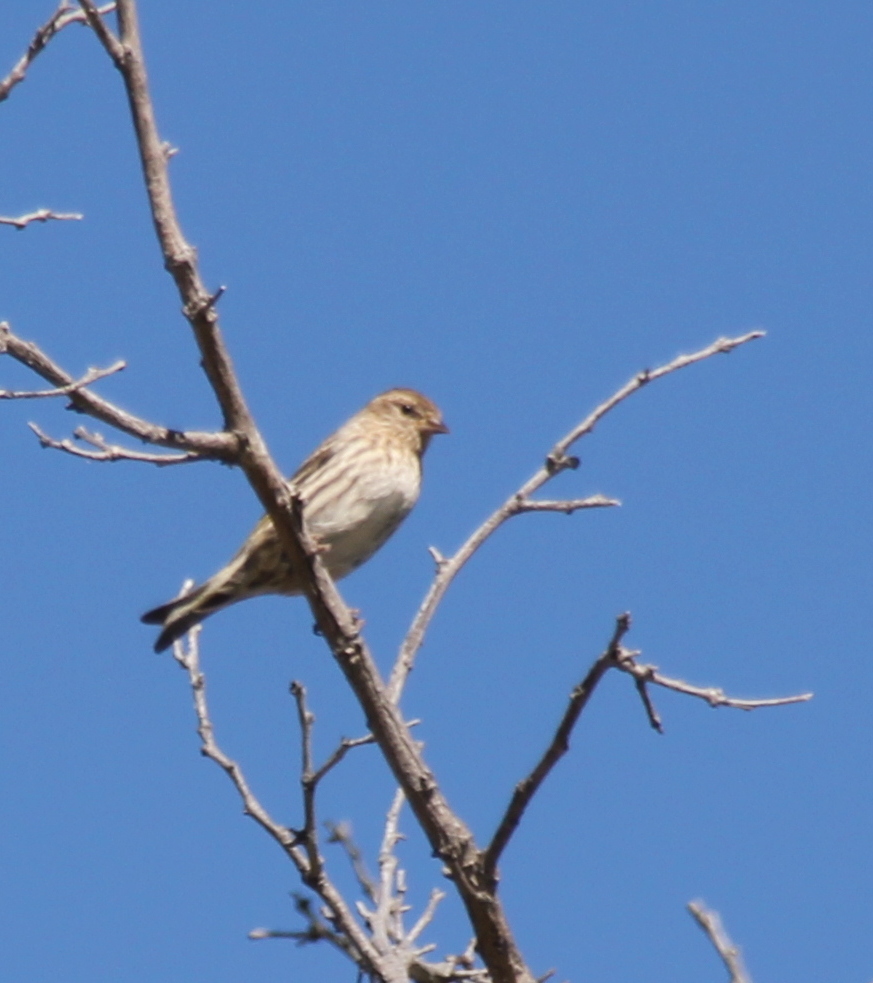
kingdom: Animalia
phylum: Chordata
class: Aves
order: Passeriformes
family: Fringillidae
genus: Spinus
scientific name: Spinus pinus
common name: Pine siskin
